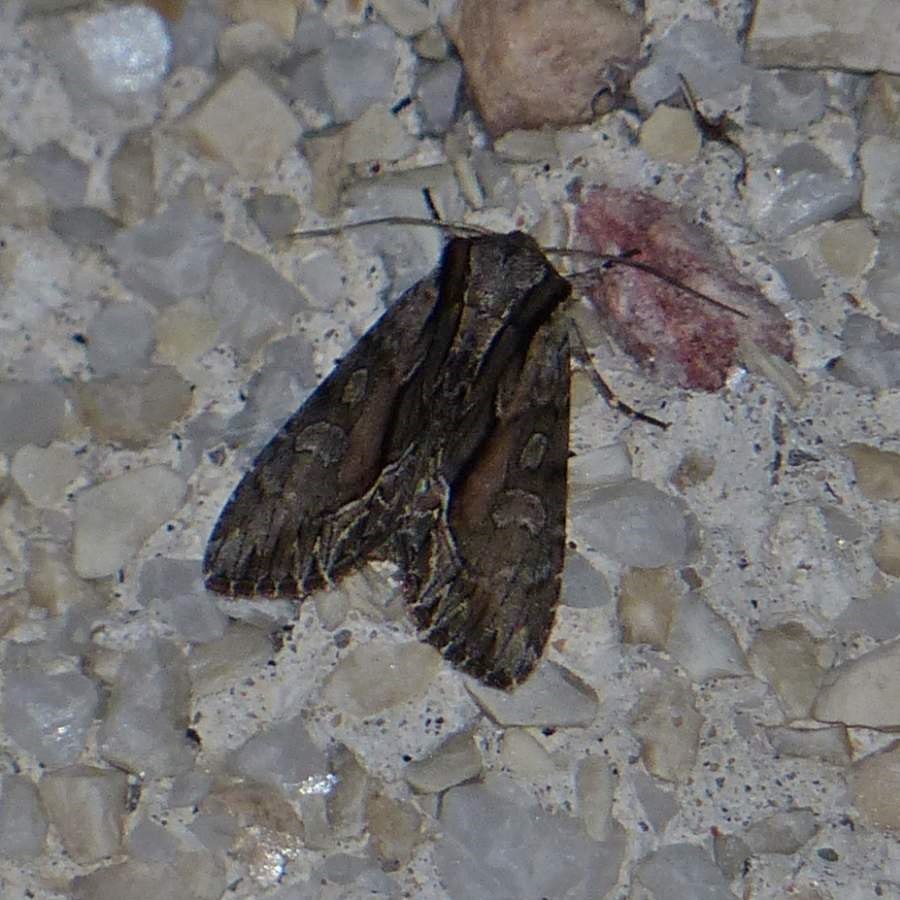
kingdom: Animalia
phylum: Arthropoda
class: Insecta
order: Lepidoptera
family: Noctuidae
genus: Hyppa
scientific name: Hyppa xylinoides
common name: Common hyppa moth
